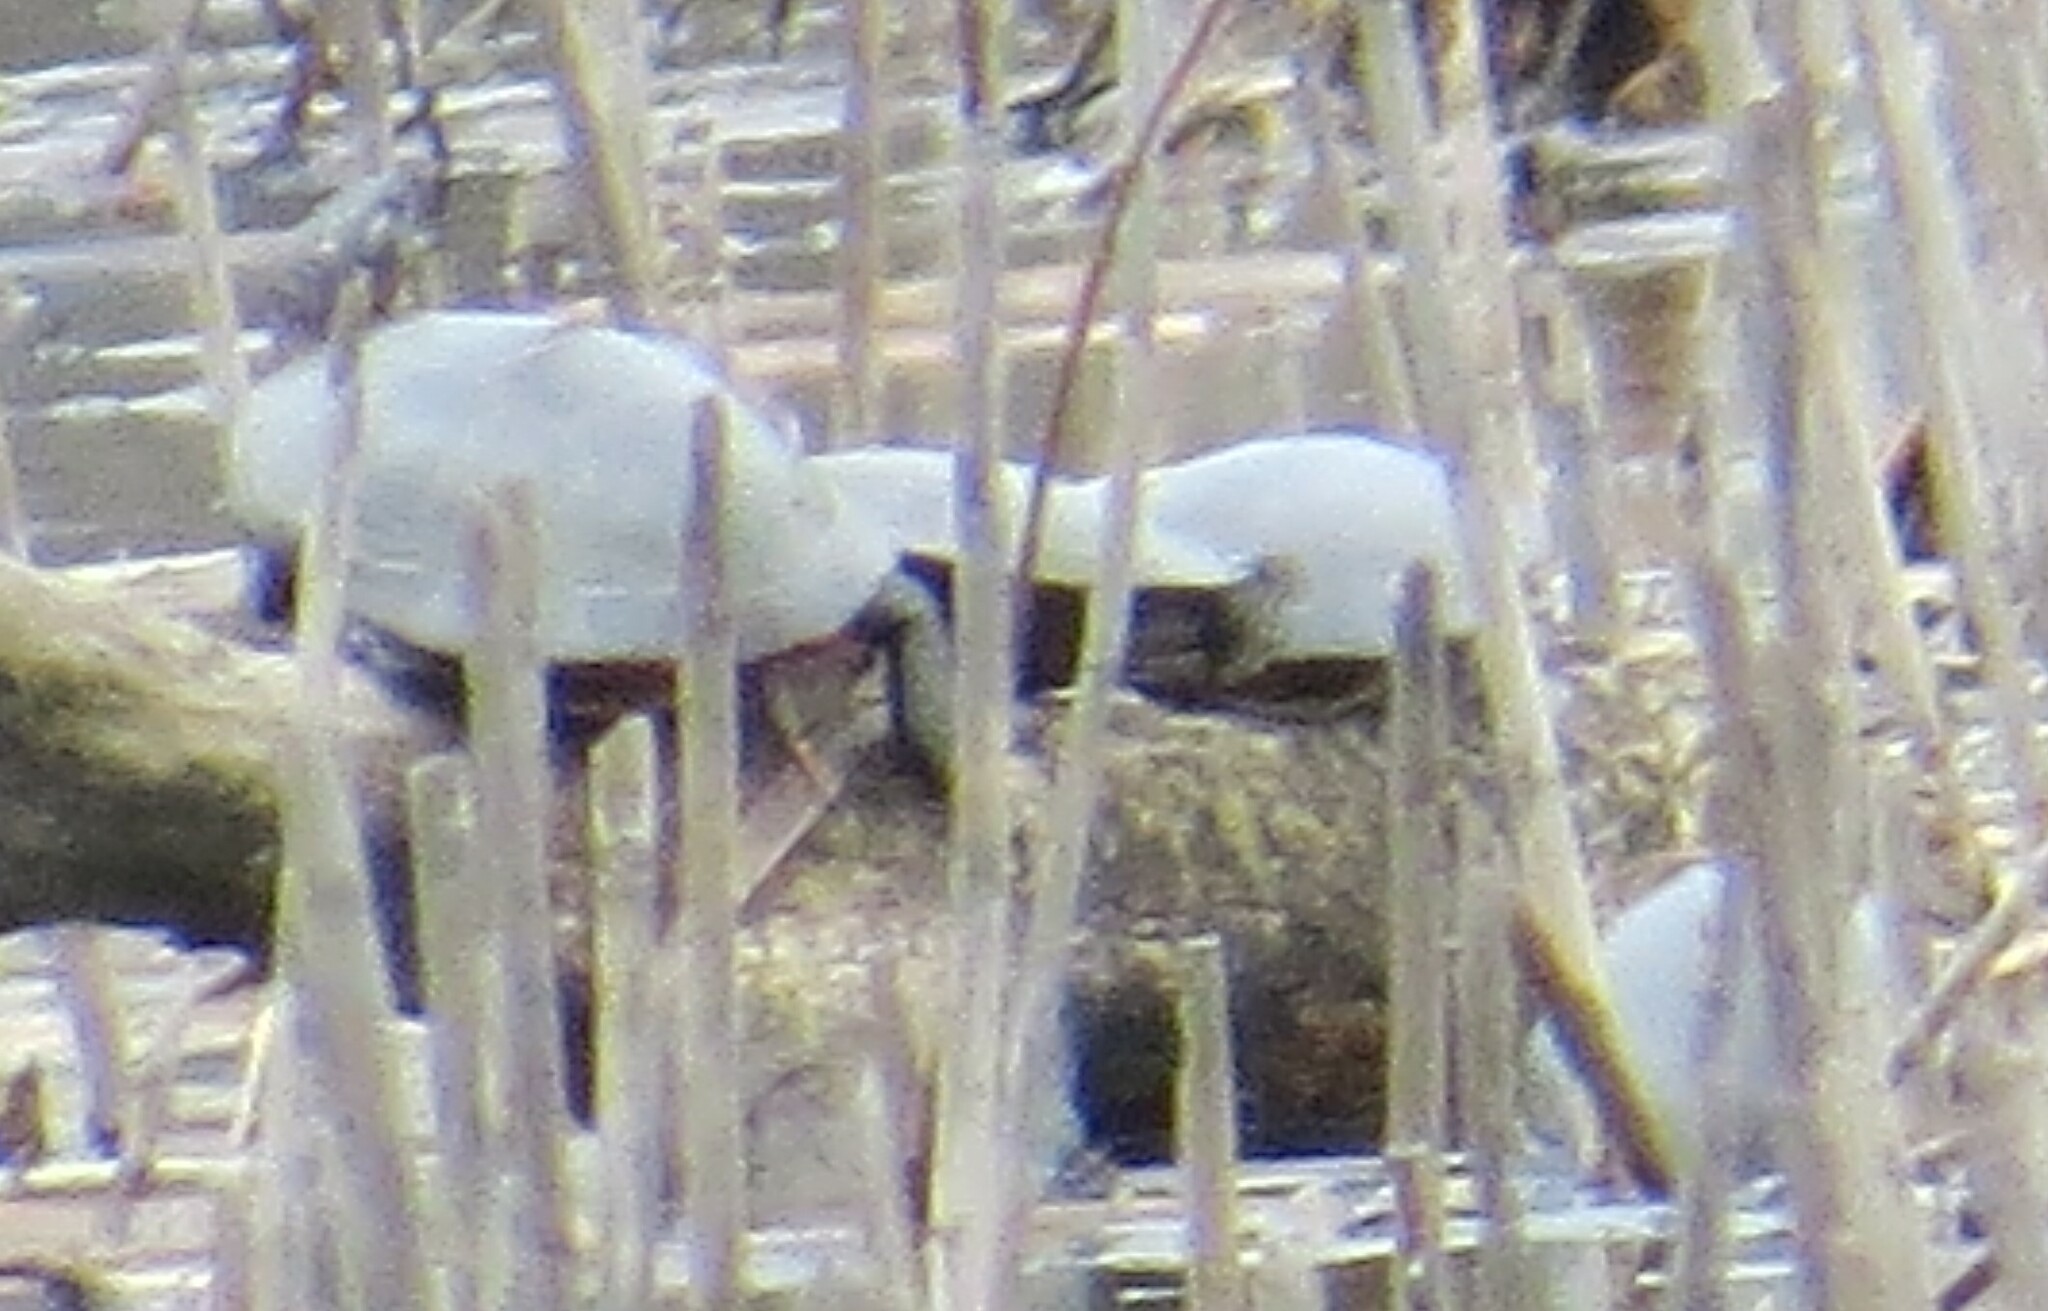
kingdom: Animalia
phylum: Chordata
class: Testudines
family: Emydidae
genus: Chrysemys
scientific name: Chrysemys picta
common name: Painted turtle
